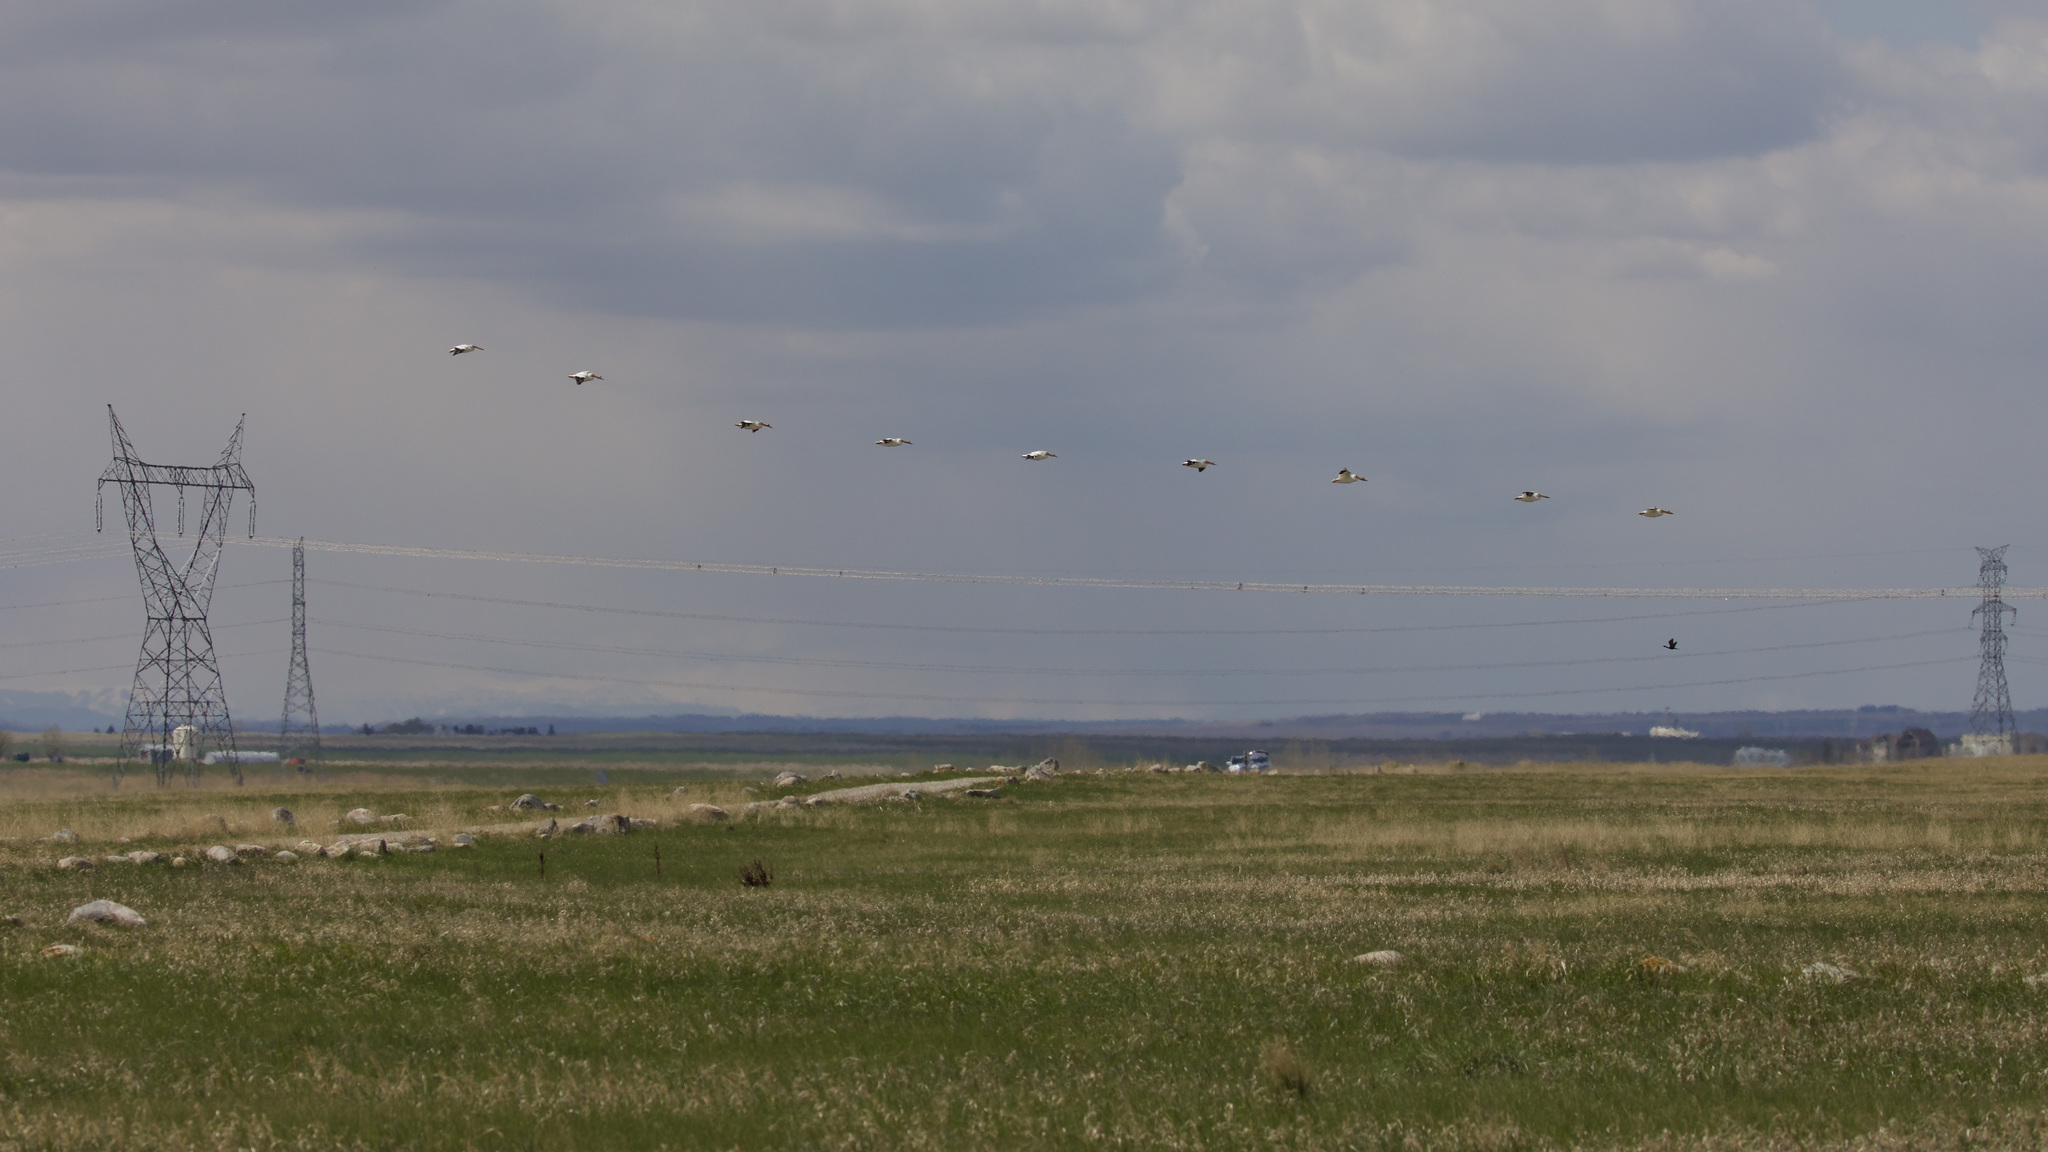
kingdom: Animalia
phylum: Chordata
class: Aves
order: Pelecaniformes
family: Pelecanidae
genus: Pelecanus
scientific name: Pelecanus erythrorhynchos
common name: American white pelican
